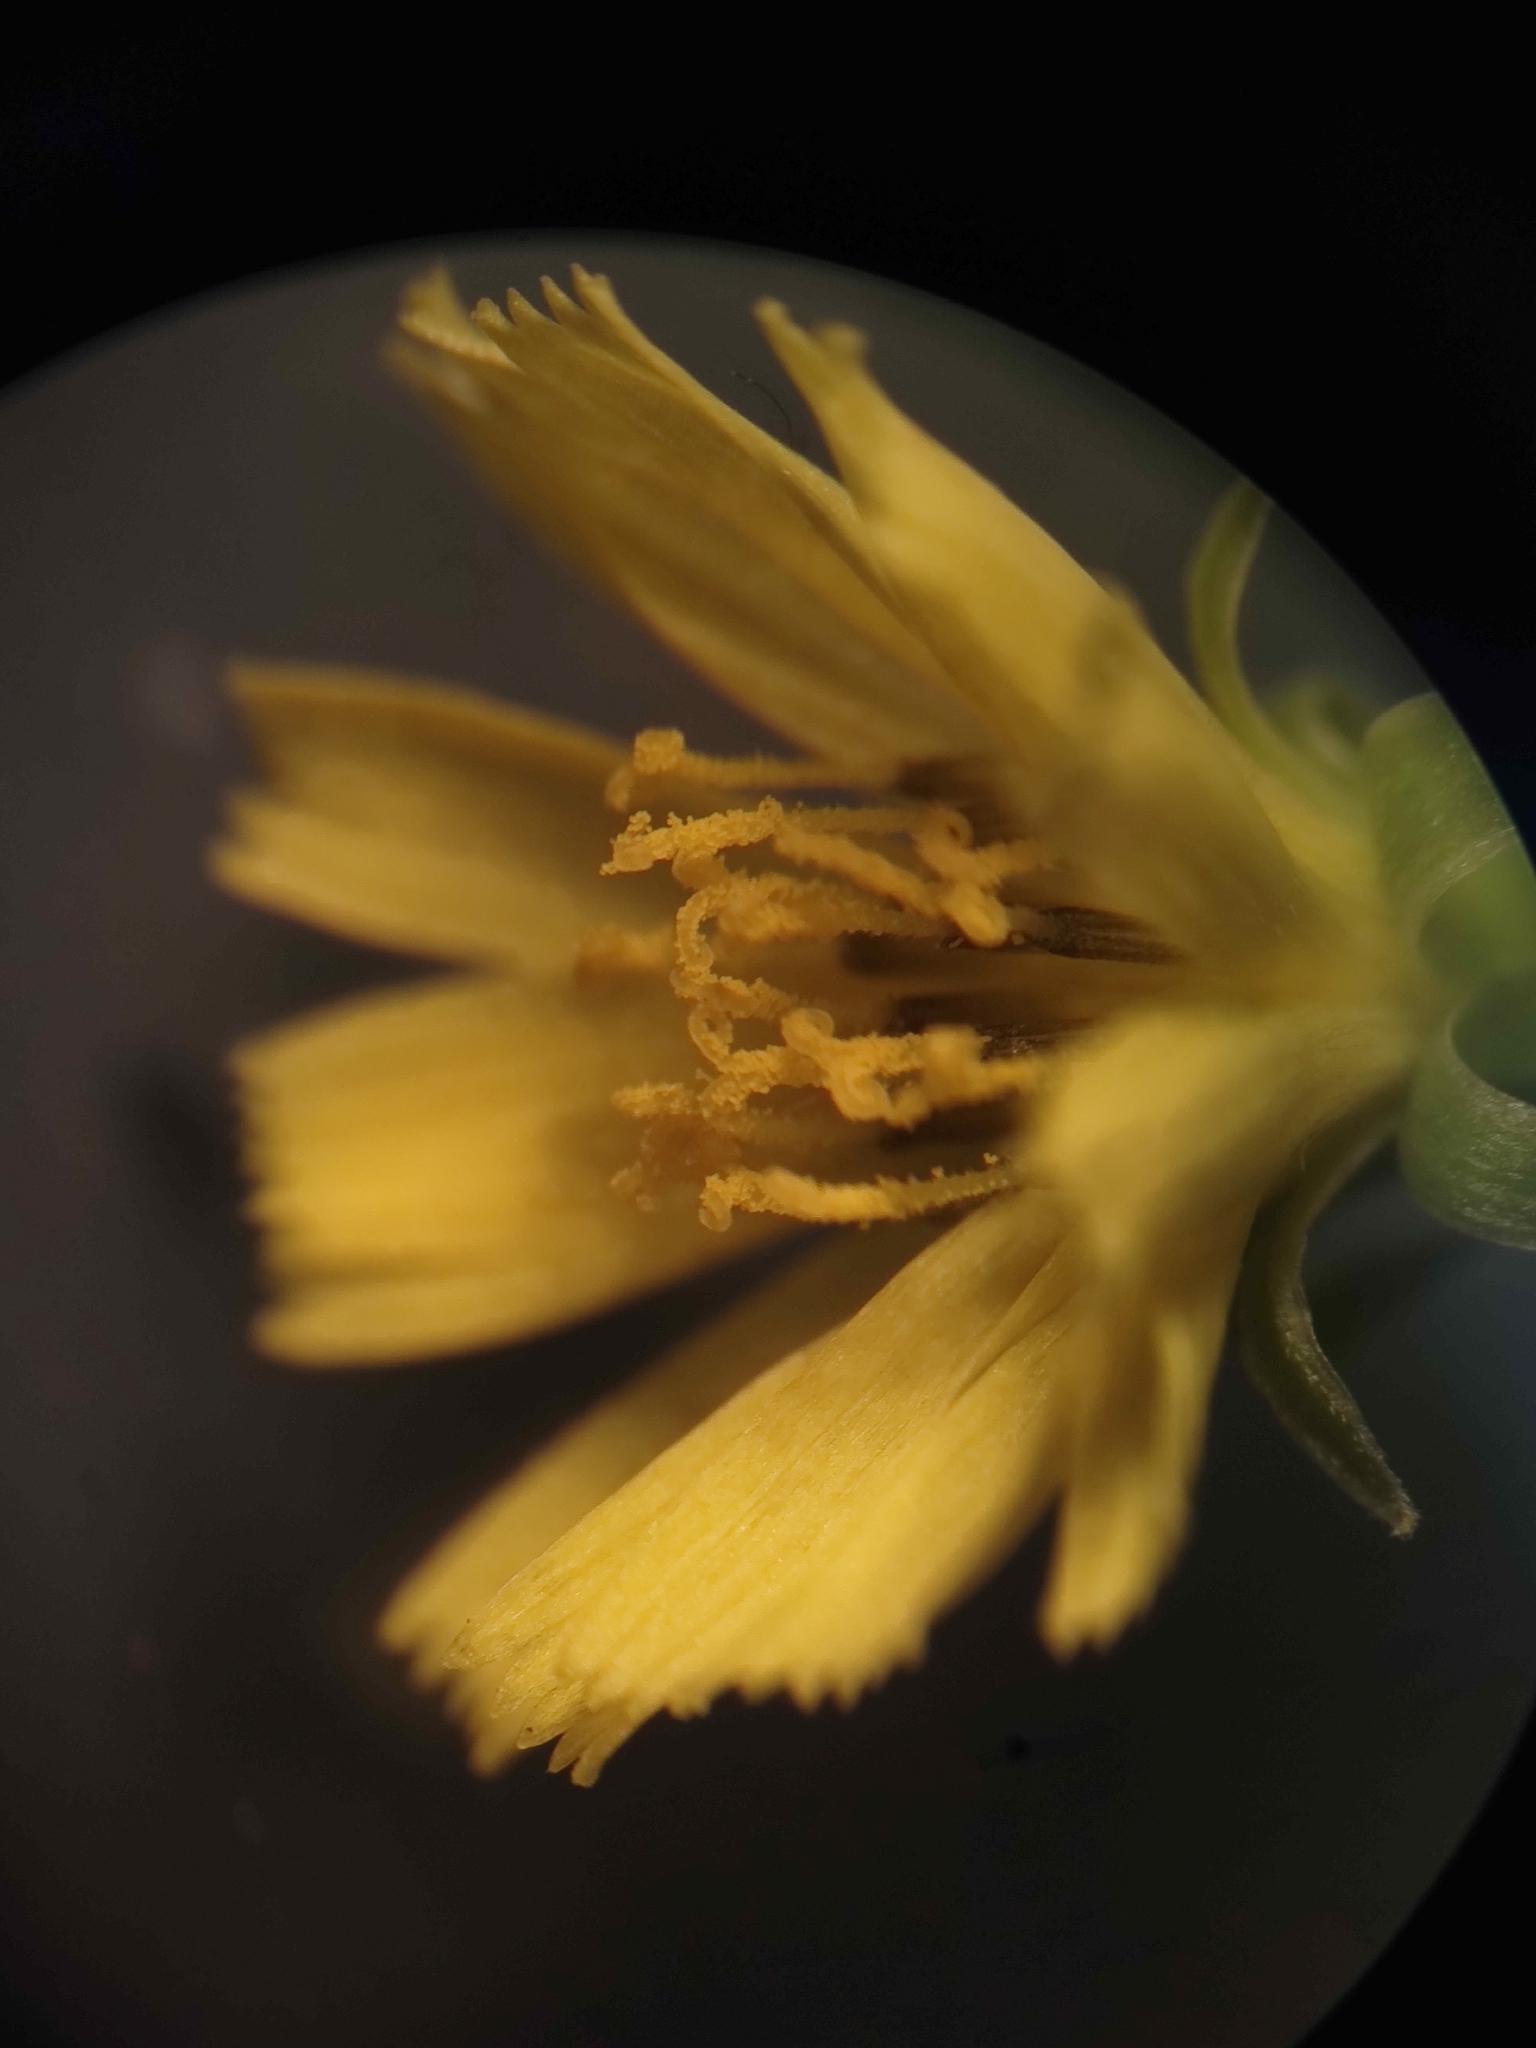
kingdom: Plantae
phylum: Tracheophyta
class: Magnoliopsida
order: Asterales
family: Asteraceae
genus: Youngia
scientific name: Youngia japonica
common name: Oriental false hawksbeard
